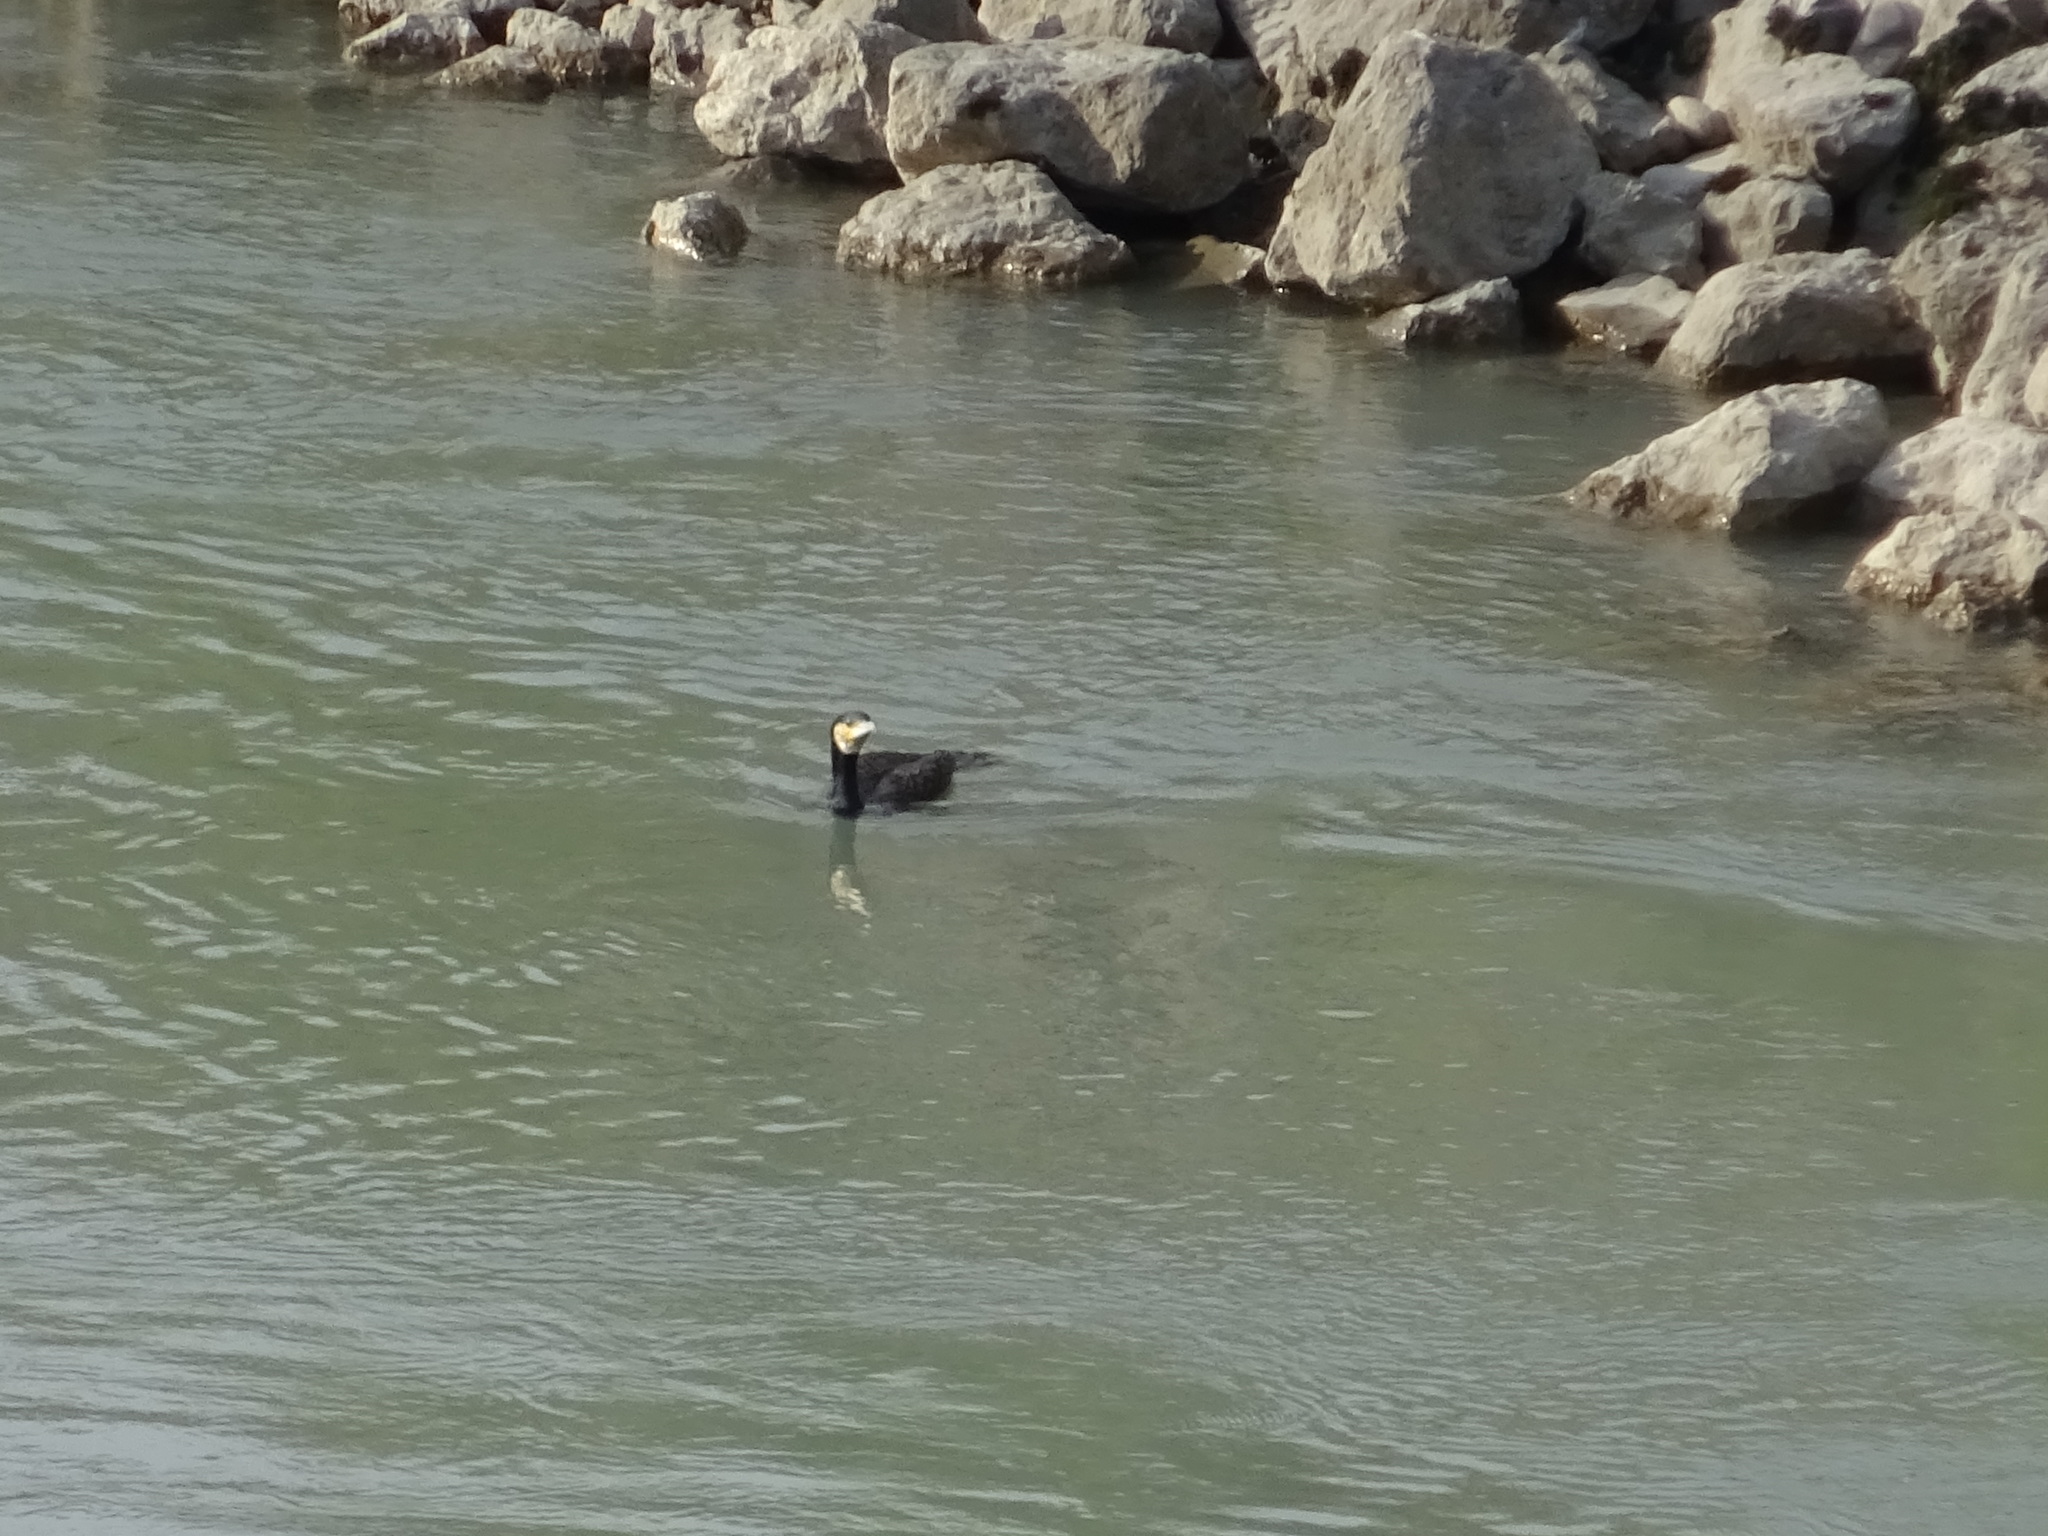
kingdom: Animalia
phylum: Chordata
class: Aves
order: Suliformes
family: Phalacrocoracidae
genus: Phalacrocorax
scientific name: Phalacrocorax carbo
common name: Great cormorant
